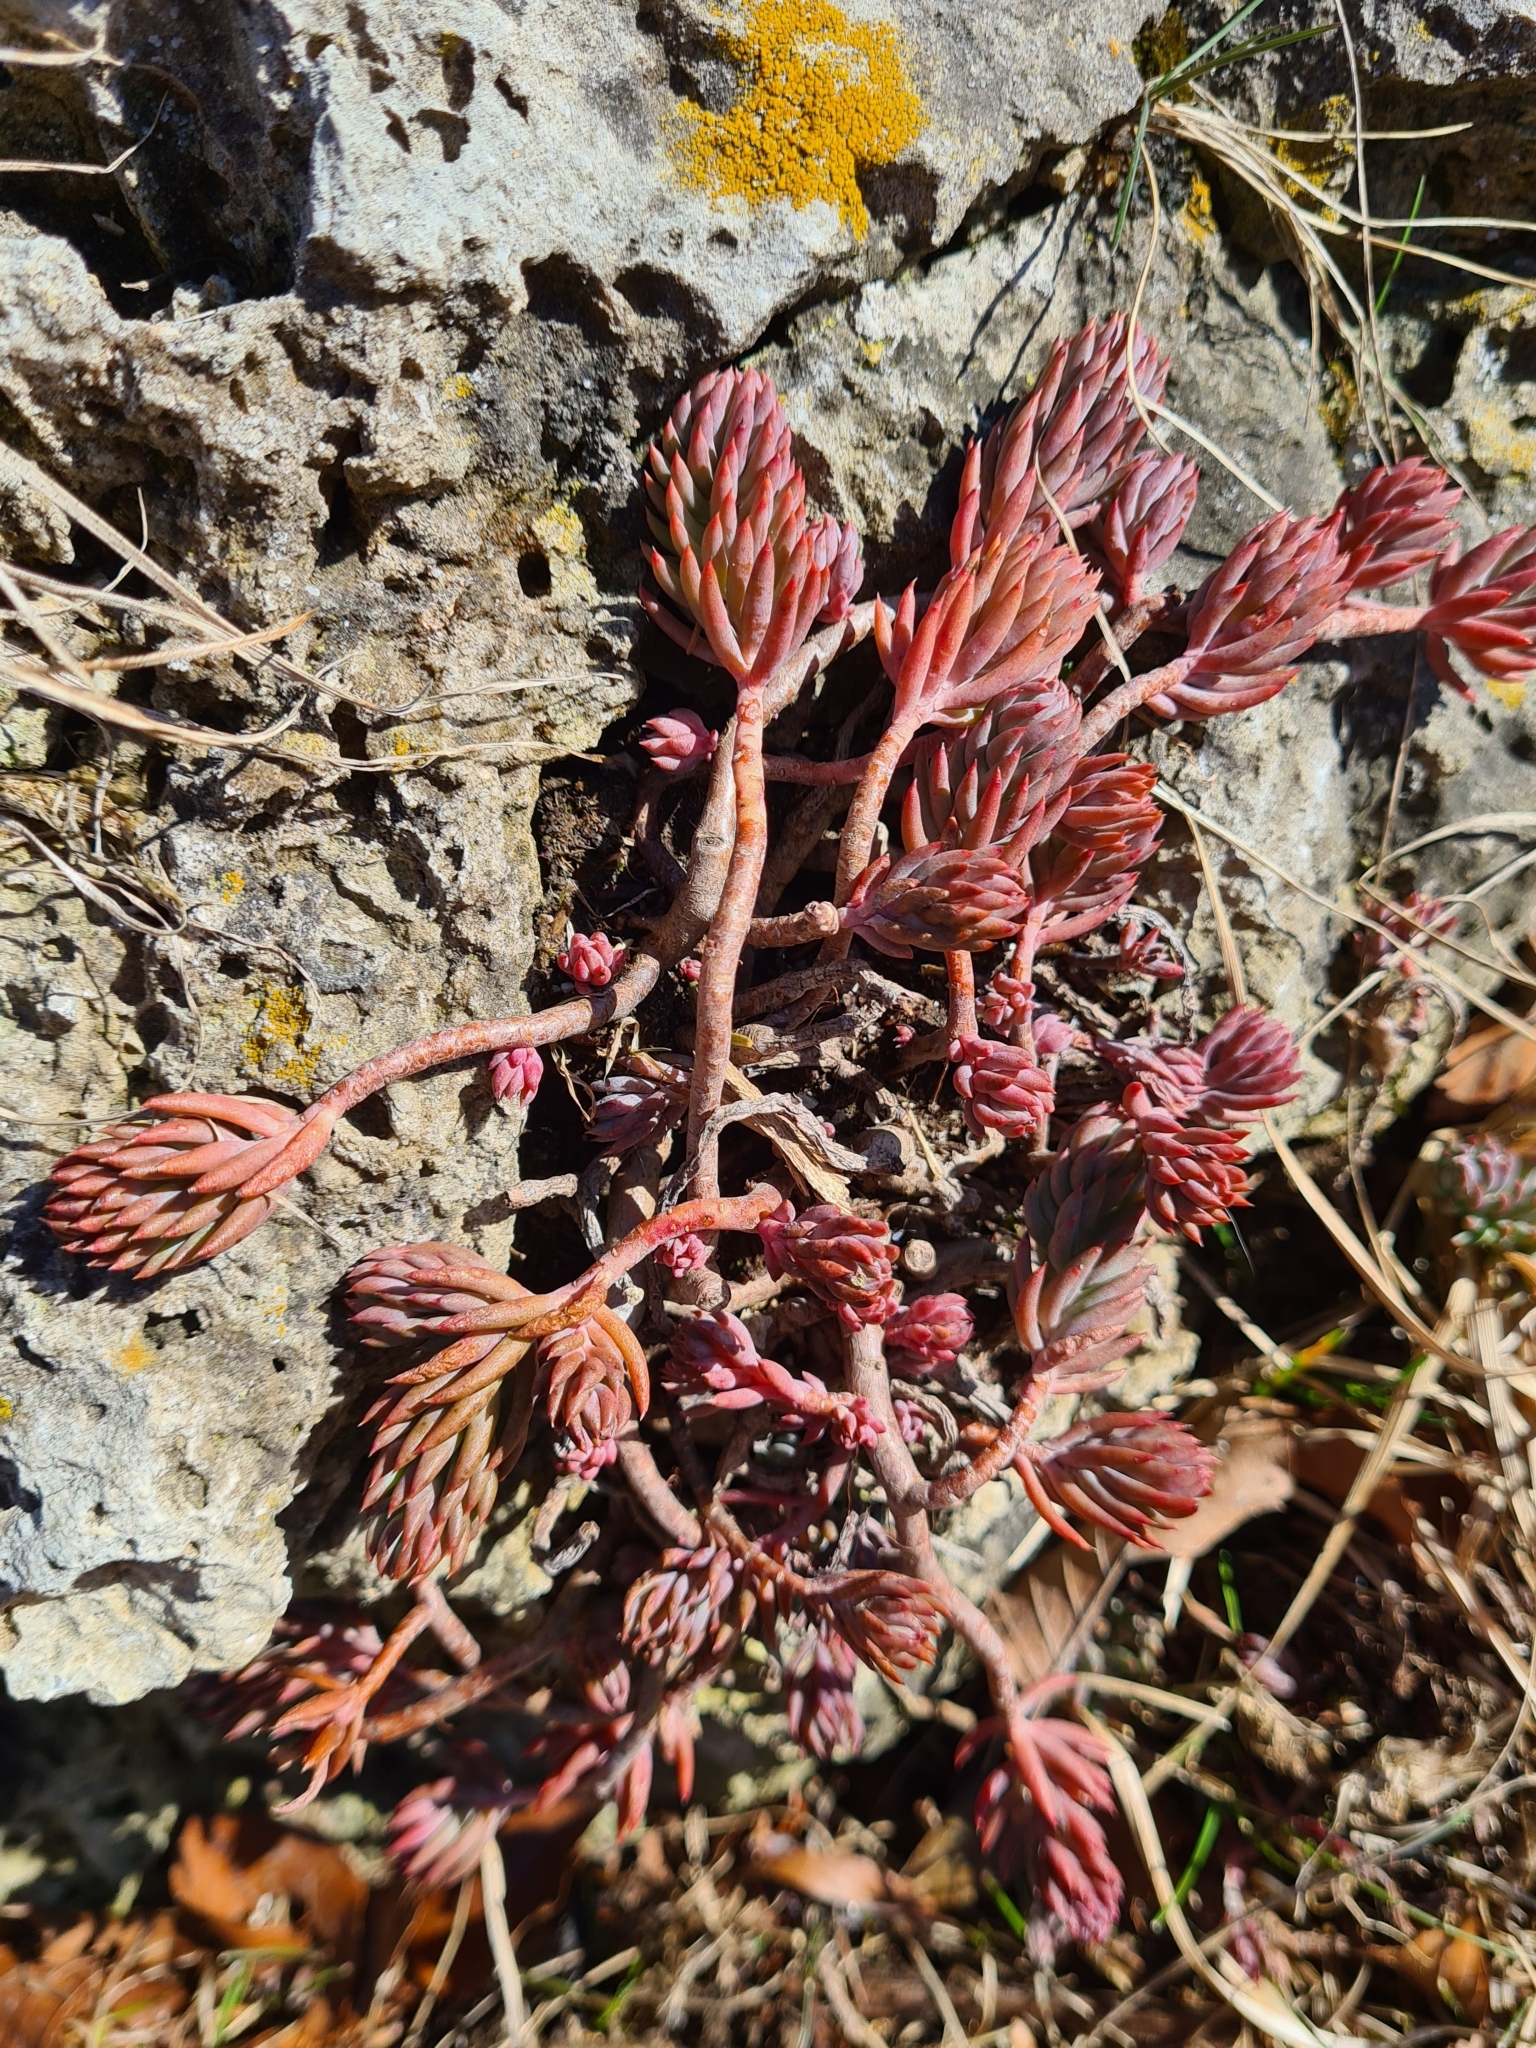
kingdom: Plantae
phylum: Tracheophyta
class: Magnoliopsida
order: Saxifragales
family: Crassulaceae
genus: Petrosedum
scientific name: Petrosedum
